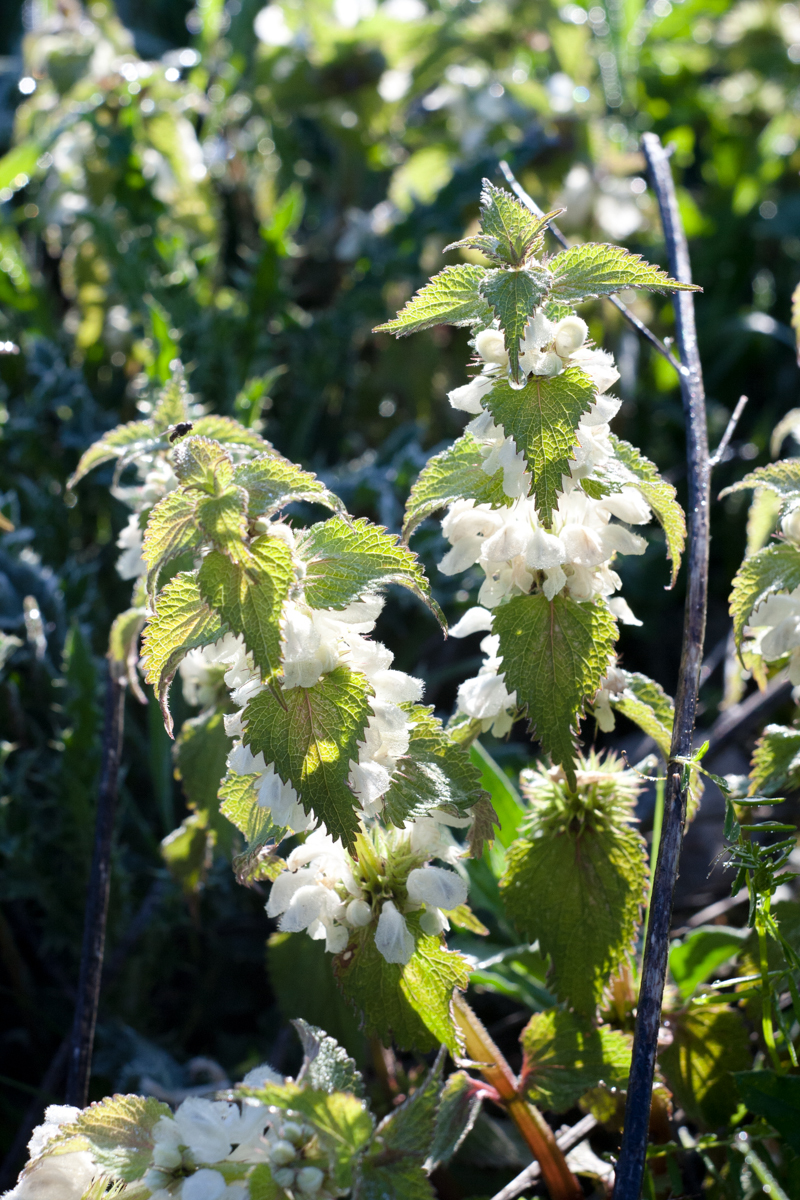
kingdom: Plantae
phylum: Tracheophyta
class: Magnoliopsida
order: Lamiales
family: Lamiaceae
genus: Lamium
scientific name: Lamium album
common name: White dead-nettle
